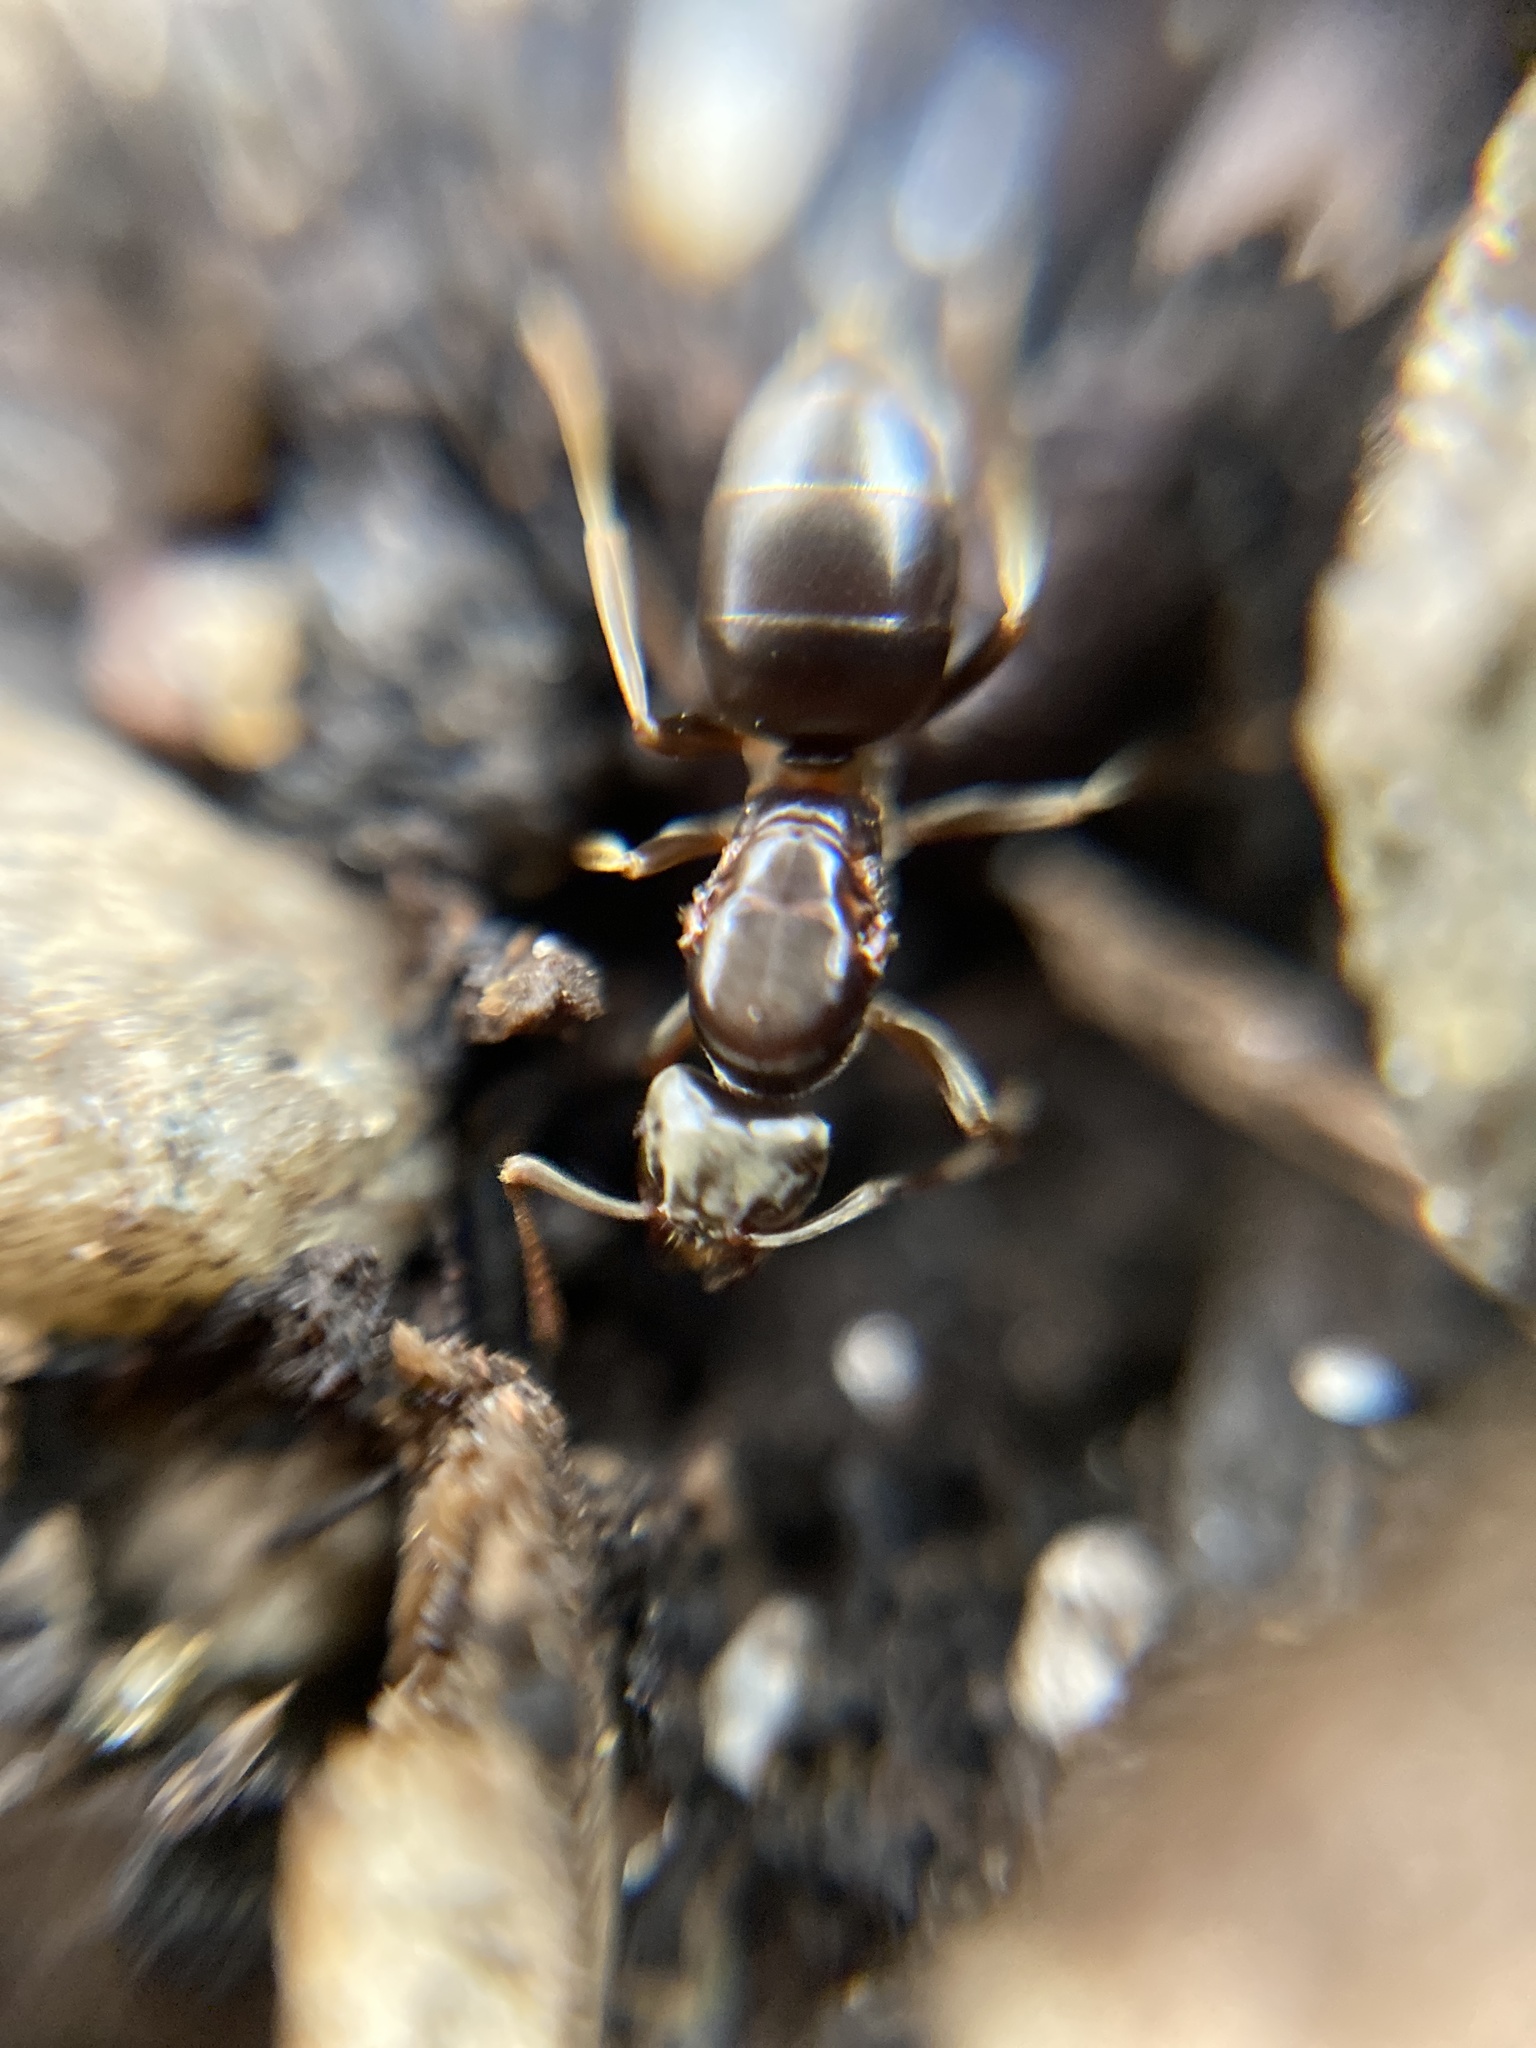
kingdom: Animalia
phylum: Arthropoda
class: Insecta
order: Hymenoptera
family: Formicidae
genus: Tapinoma
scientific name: Tapinoma sessile
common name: Odorous house ant
